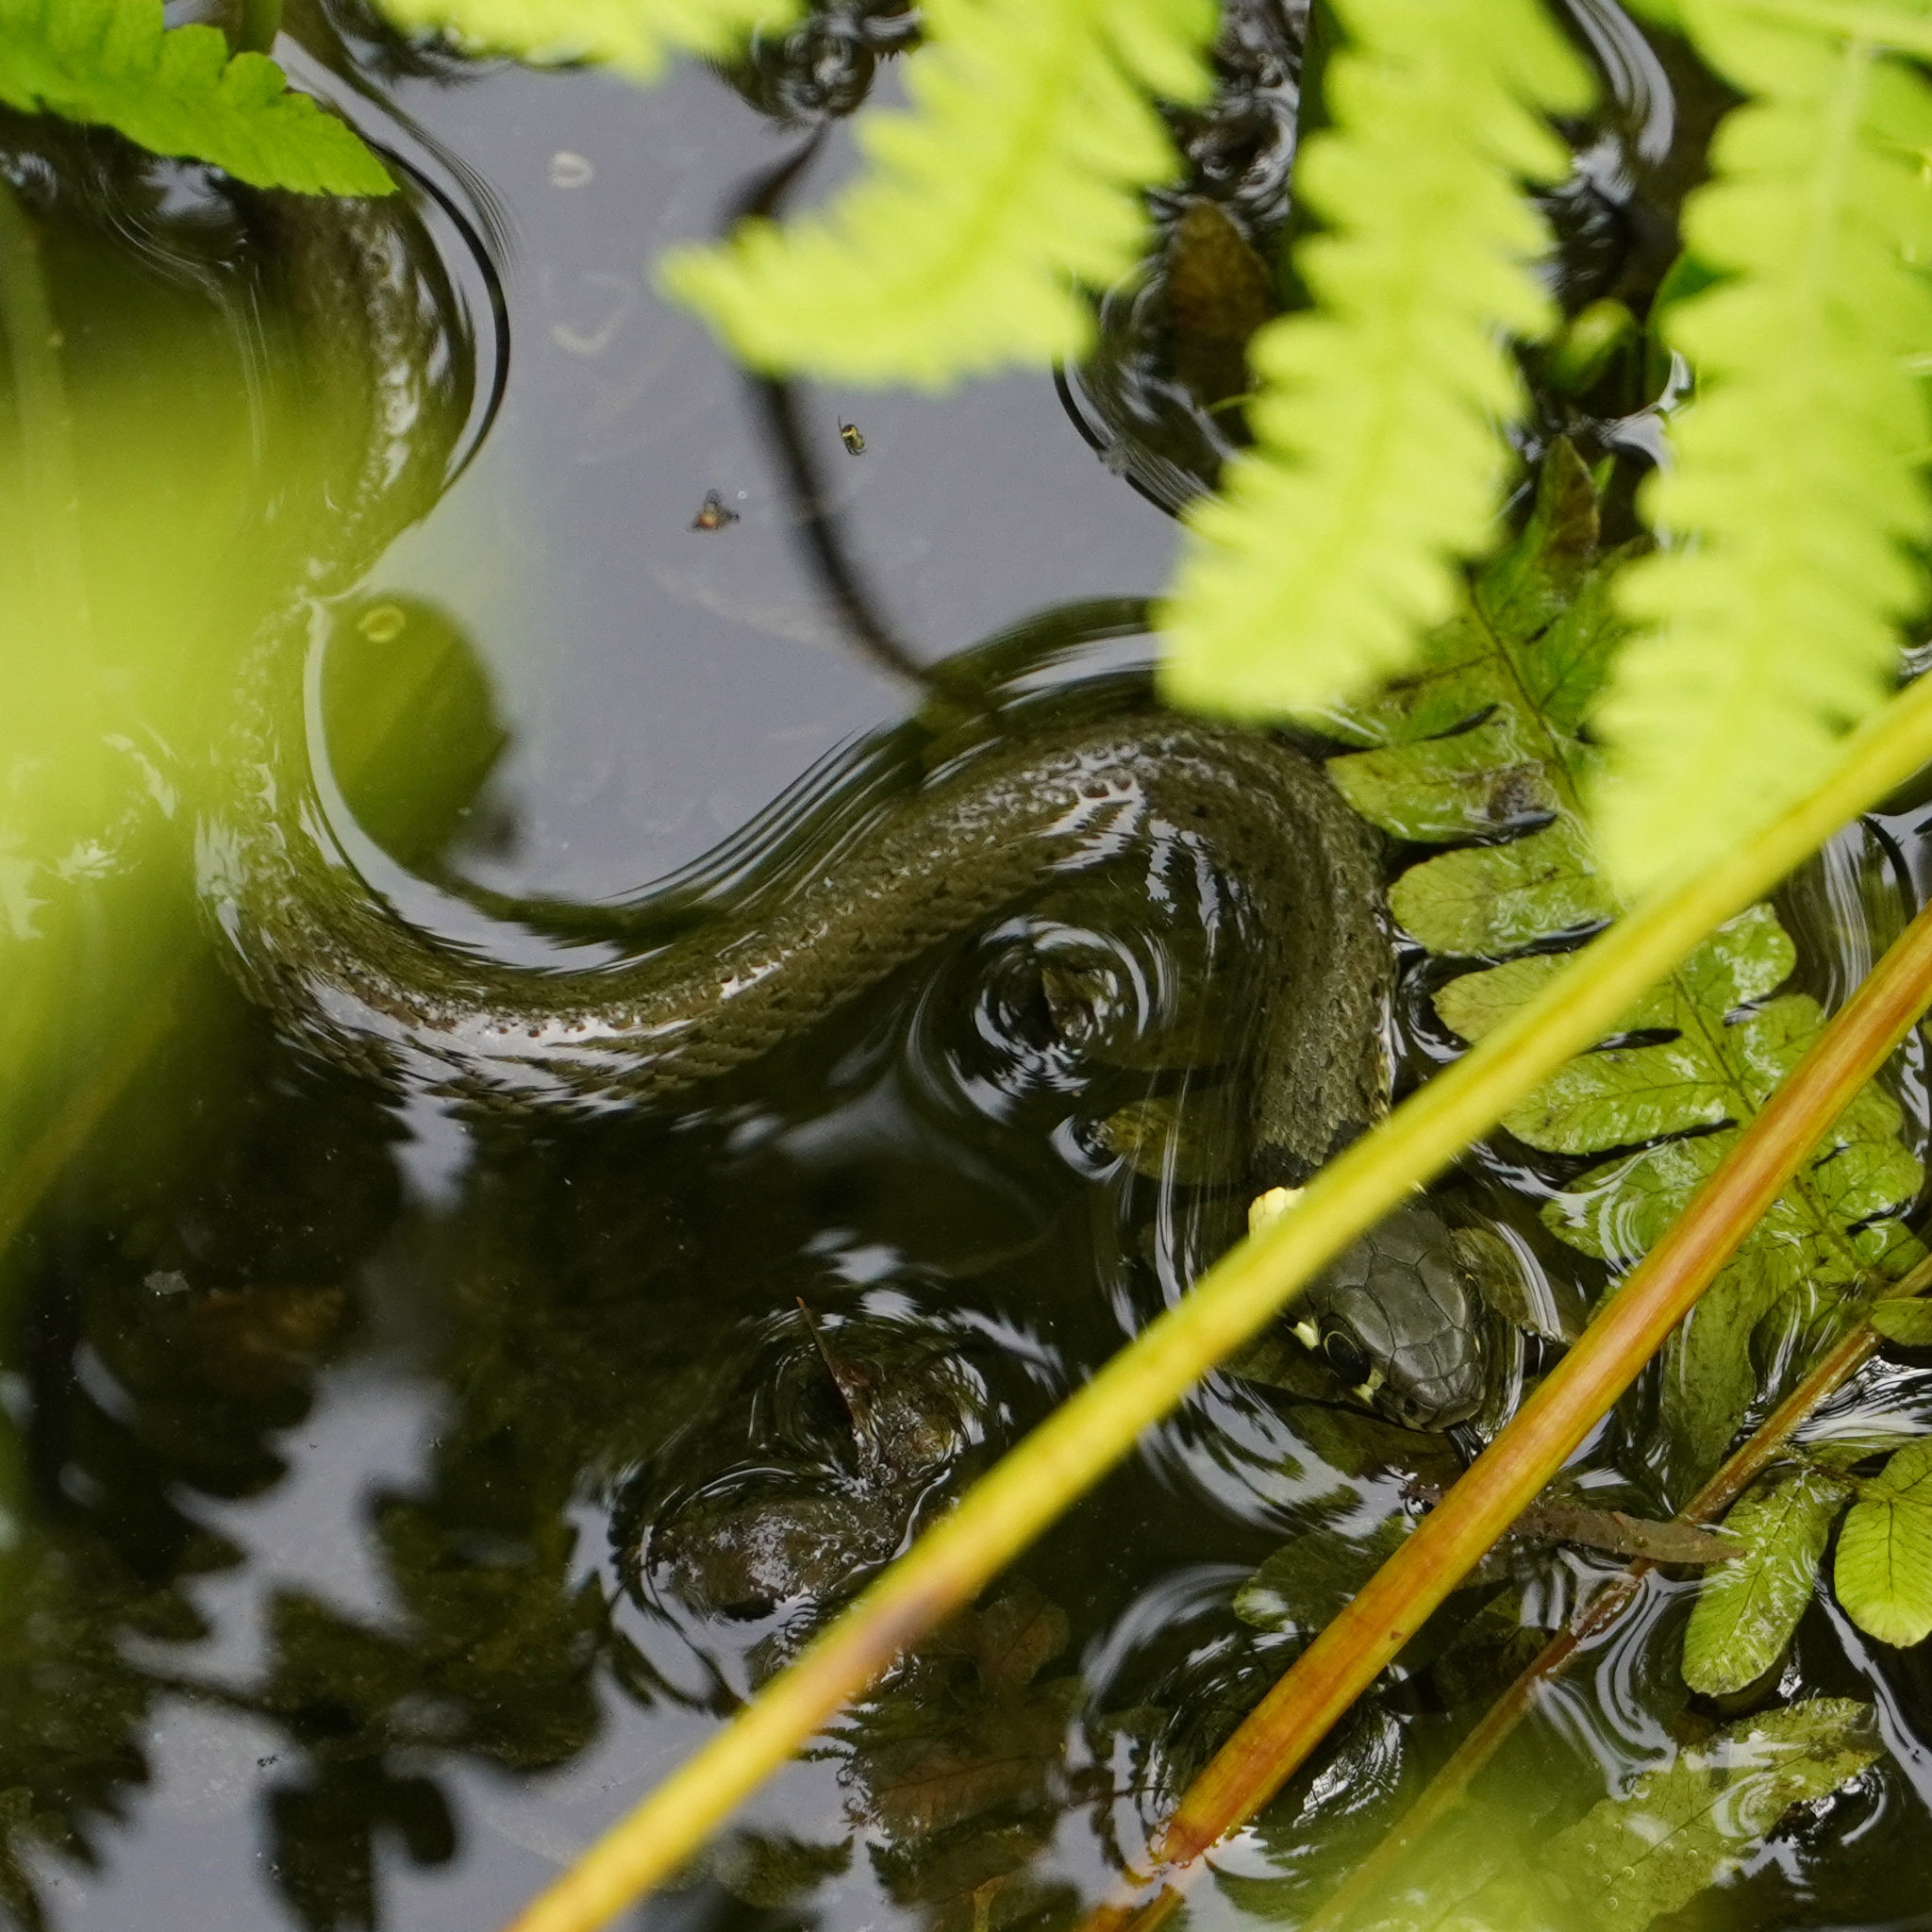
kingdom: Animalia
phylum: Chordata
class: Squamata
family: Colubridae
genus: Natrix
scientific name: Natrix natrix
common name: Grass snake
